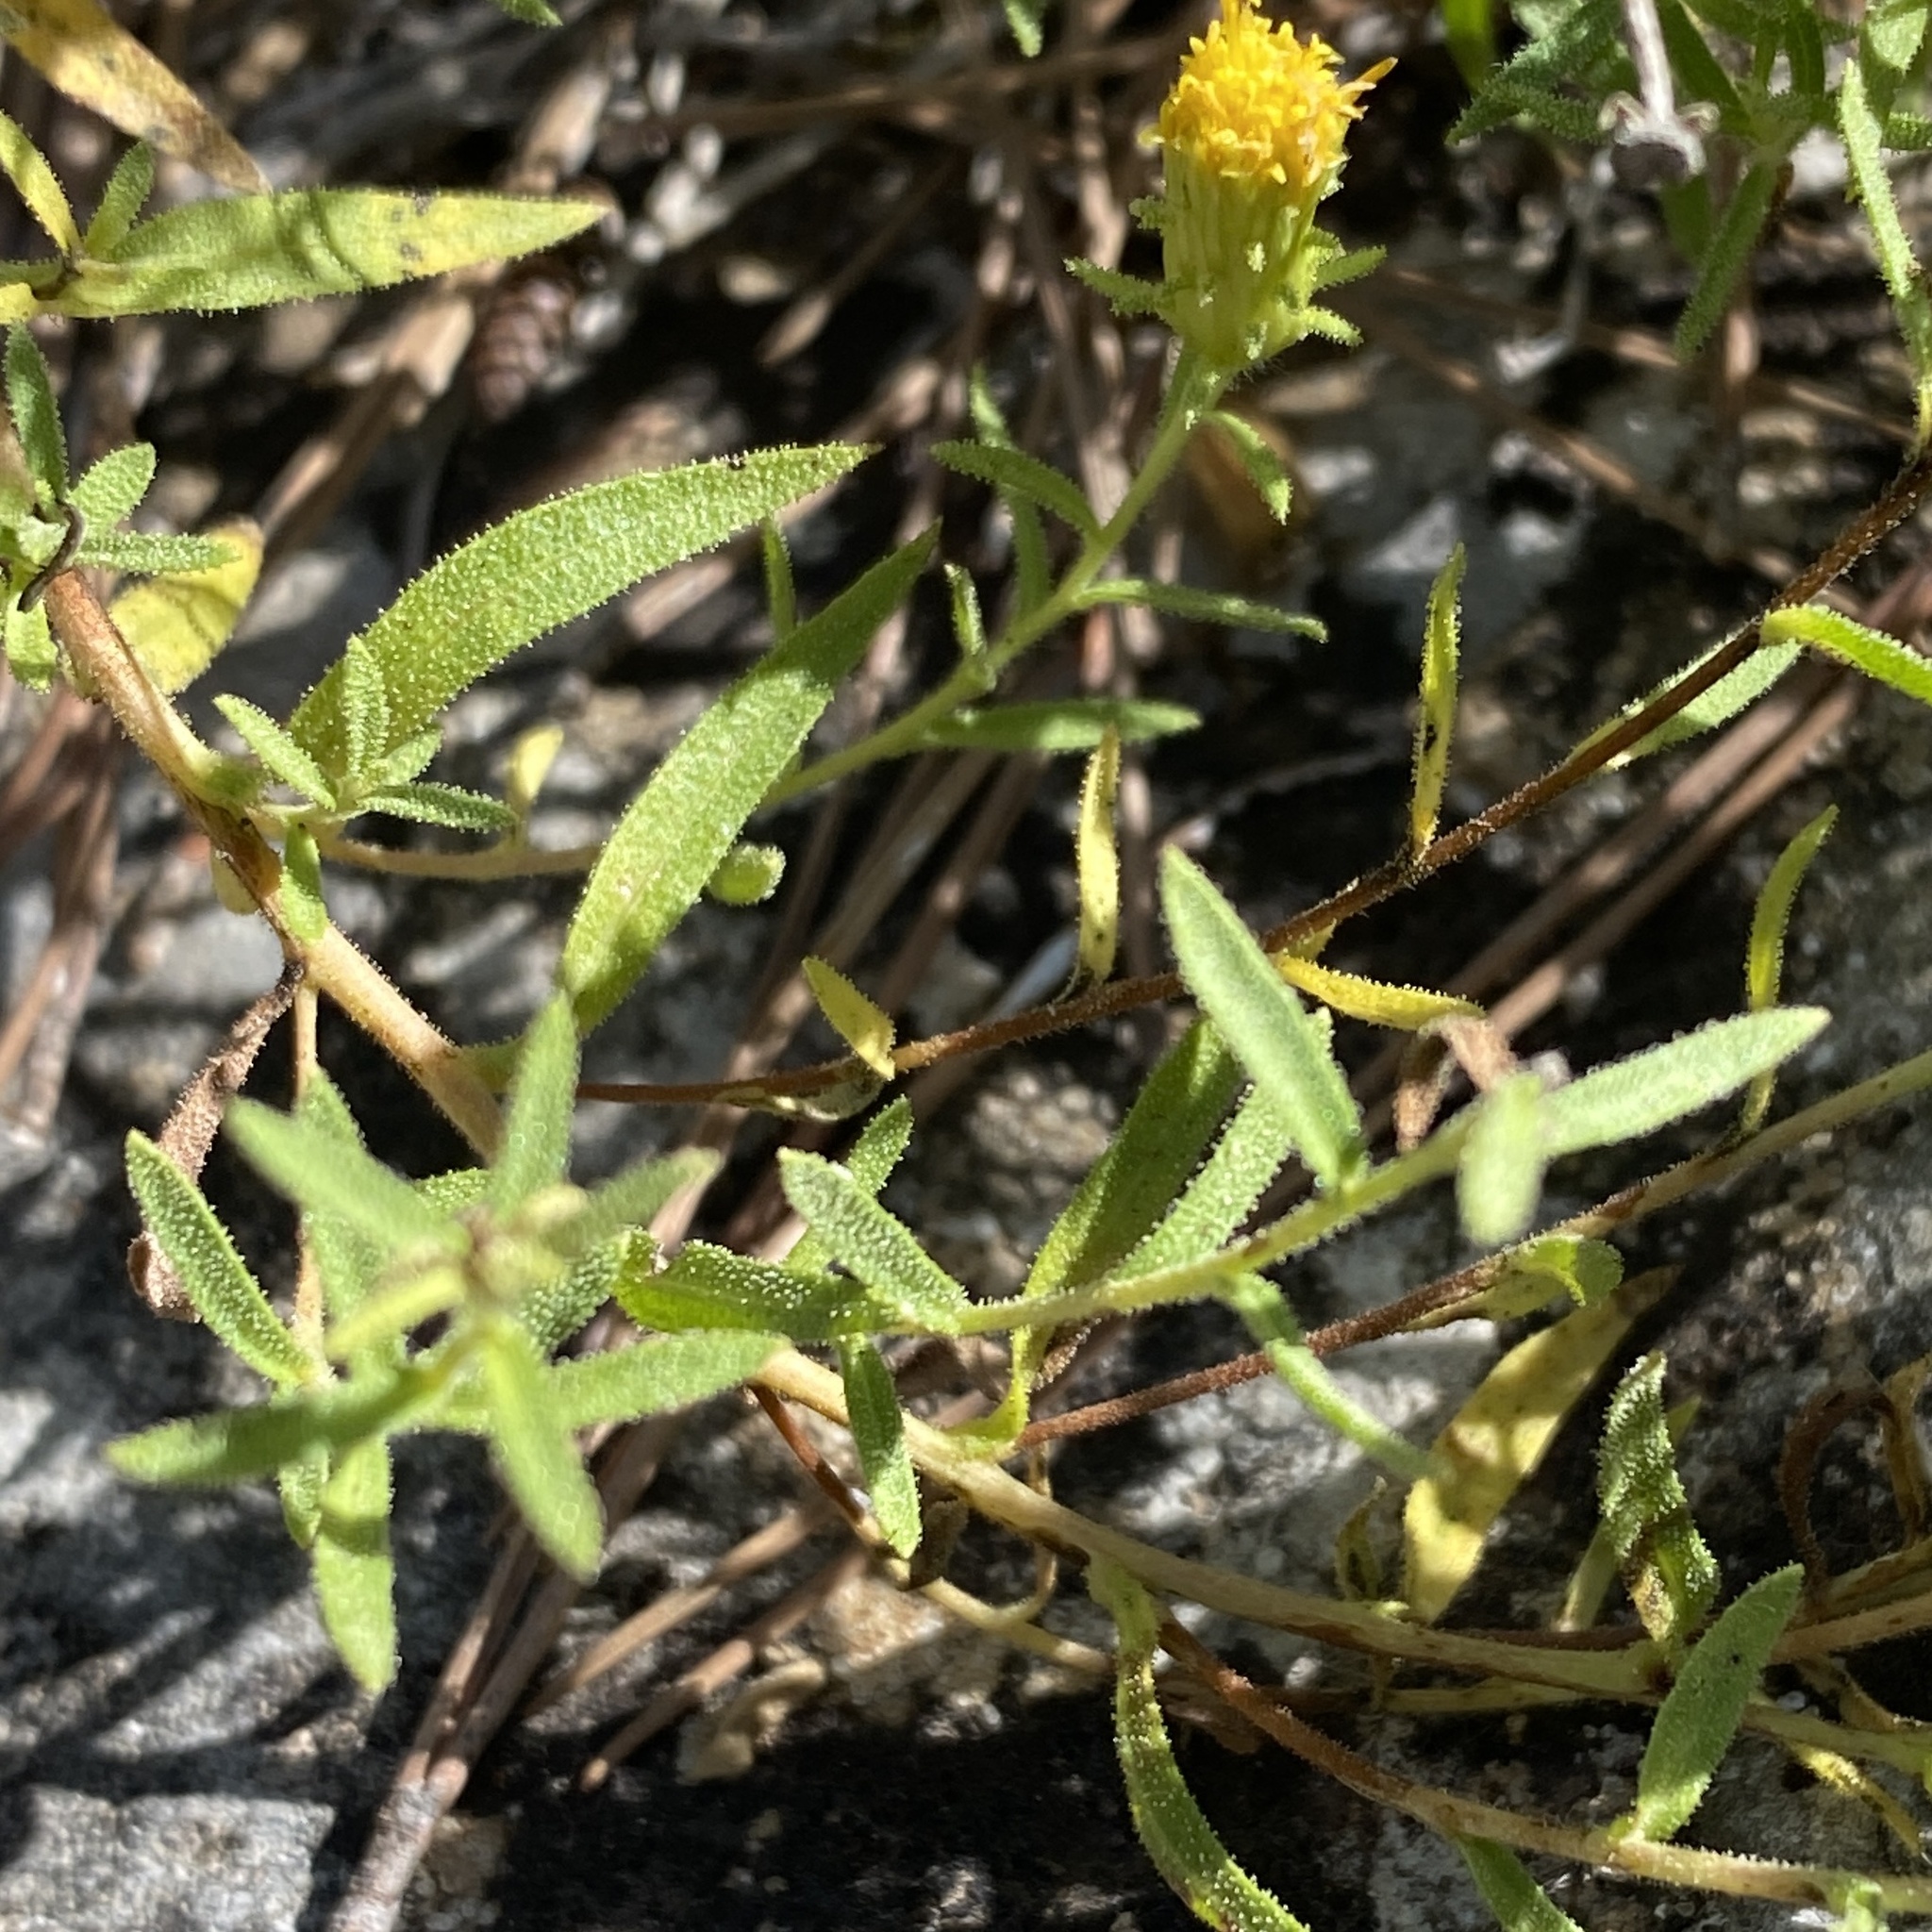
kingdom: Plantae
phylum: Tracheophyta
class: Magnoliopsida
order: Asterales
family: Asteraceae
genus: Chiliadenus
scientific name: Chiliadenus glutinosus
